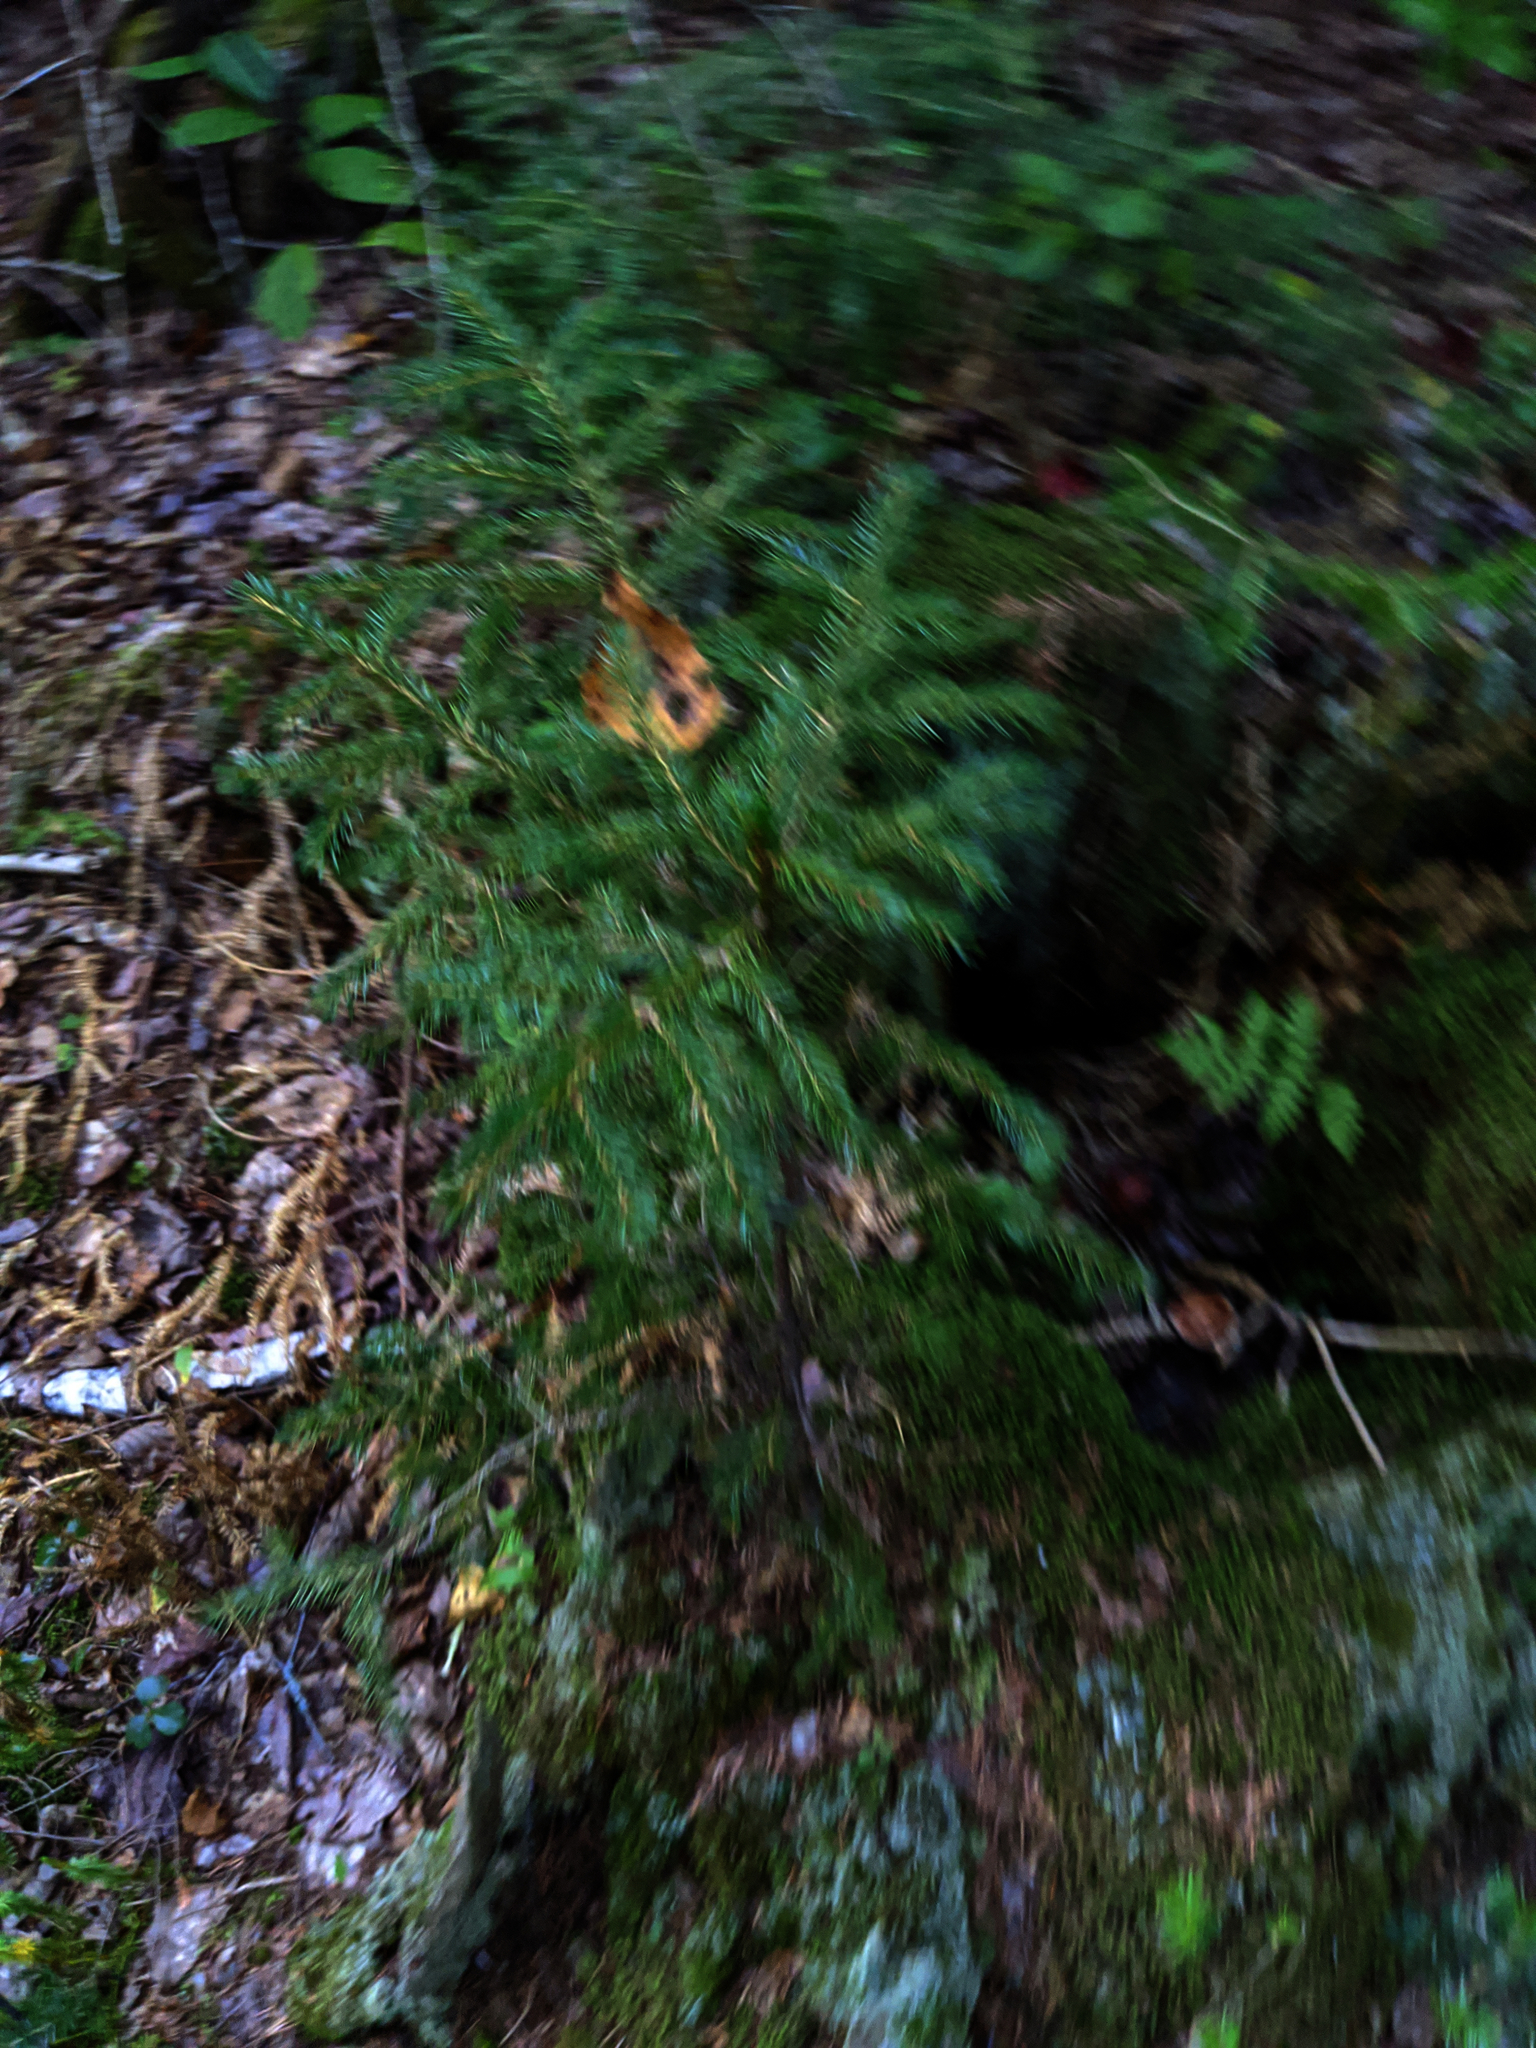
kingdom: Plantae
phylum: Tracheophyta
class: Pinopsida
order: Pinales
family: Pinaceae
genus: Picea
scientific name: Picea rubens
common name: Red spruce
